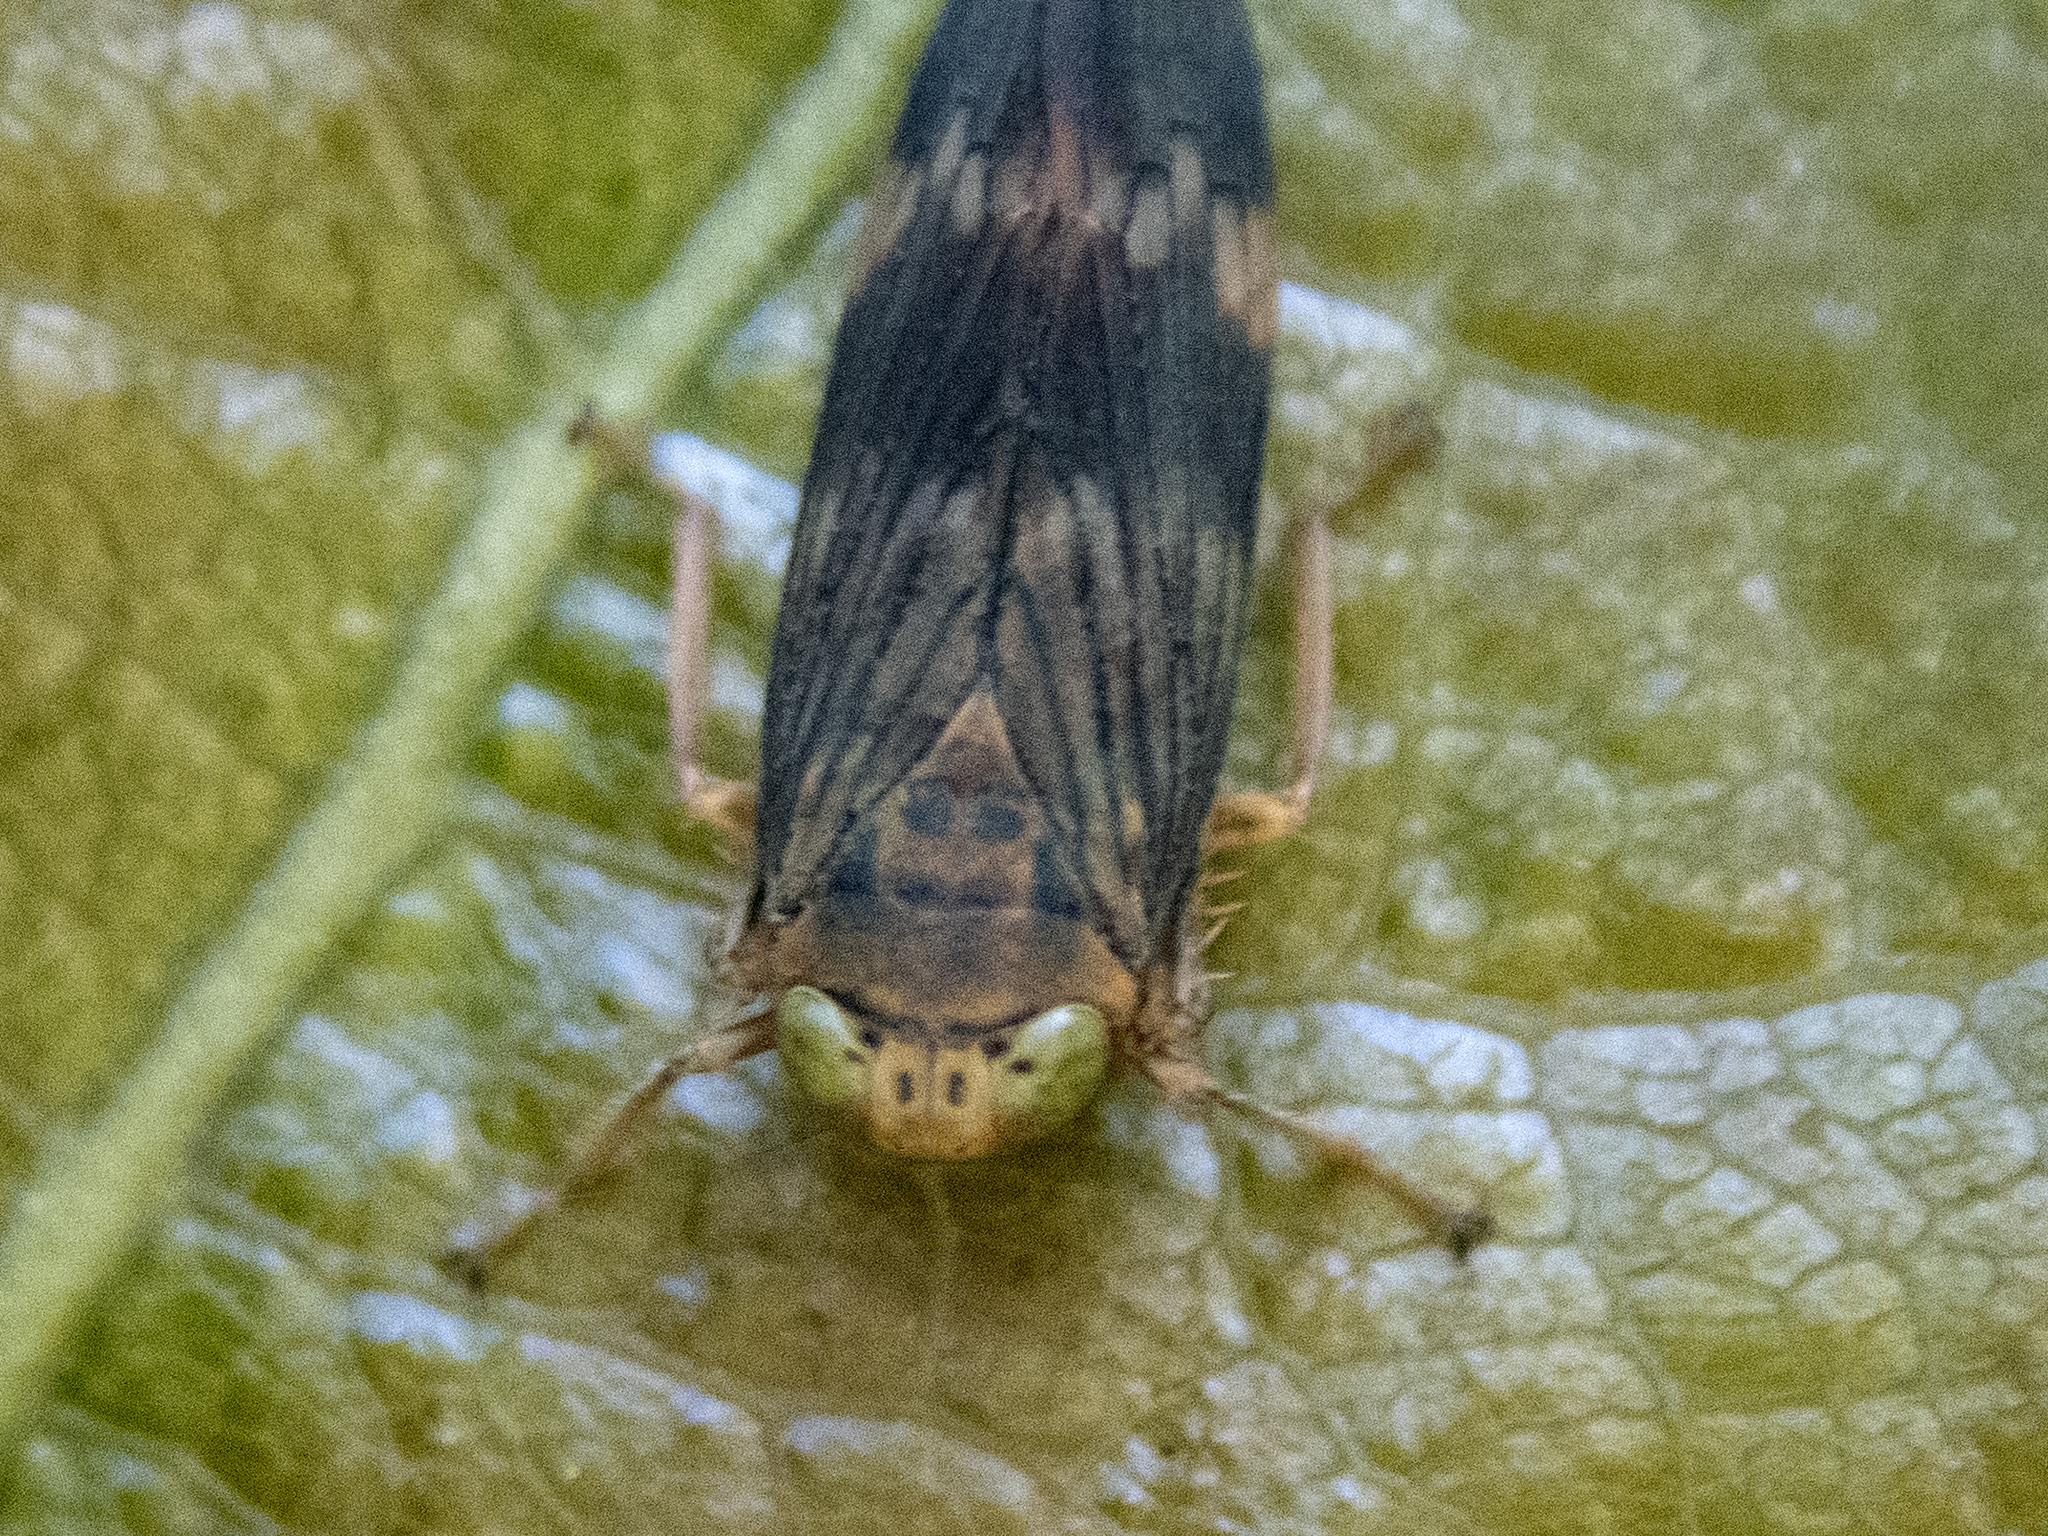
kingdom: Animalia
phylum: Arthropoda
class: Insecta
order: Hemiptera
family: Cicadellidae
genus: Jikradia
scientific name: Jikradia olitoria
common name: Coppery leafhopper
